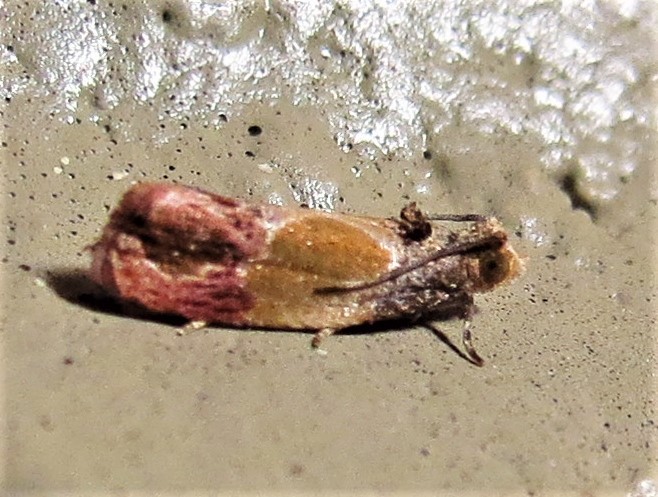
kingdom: Animalia
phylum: Arthropoda
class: Insecta
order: Lepidoptera
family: Tortricidae
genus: Eumarozia
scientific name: Eumarozia malachitana
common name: Sculptured moth
